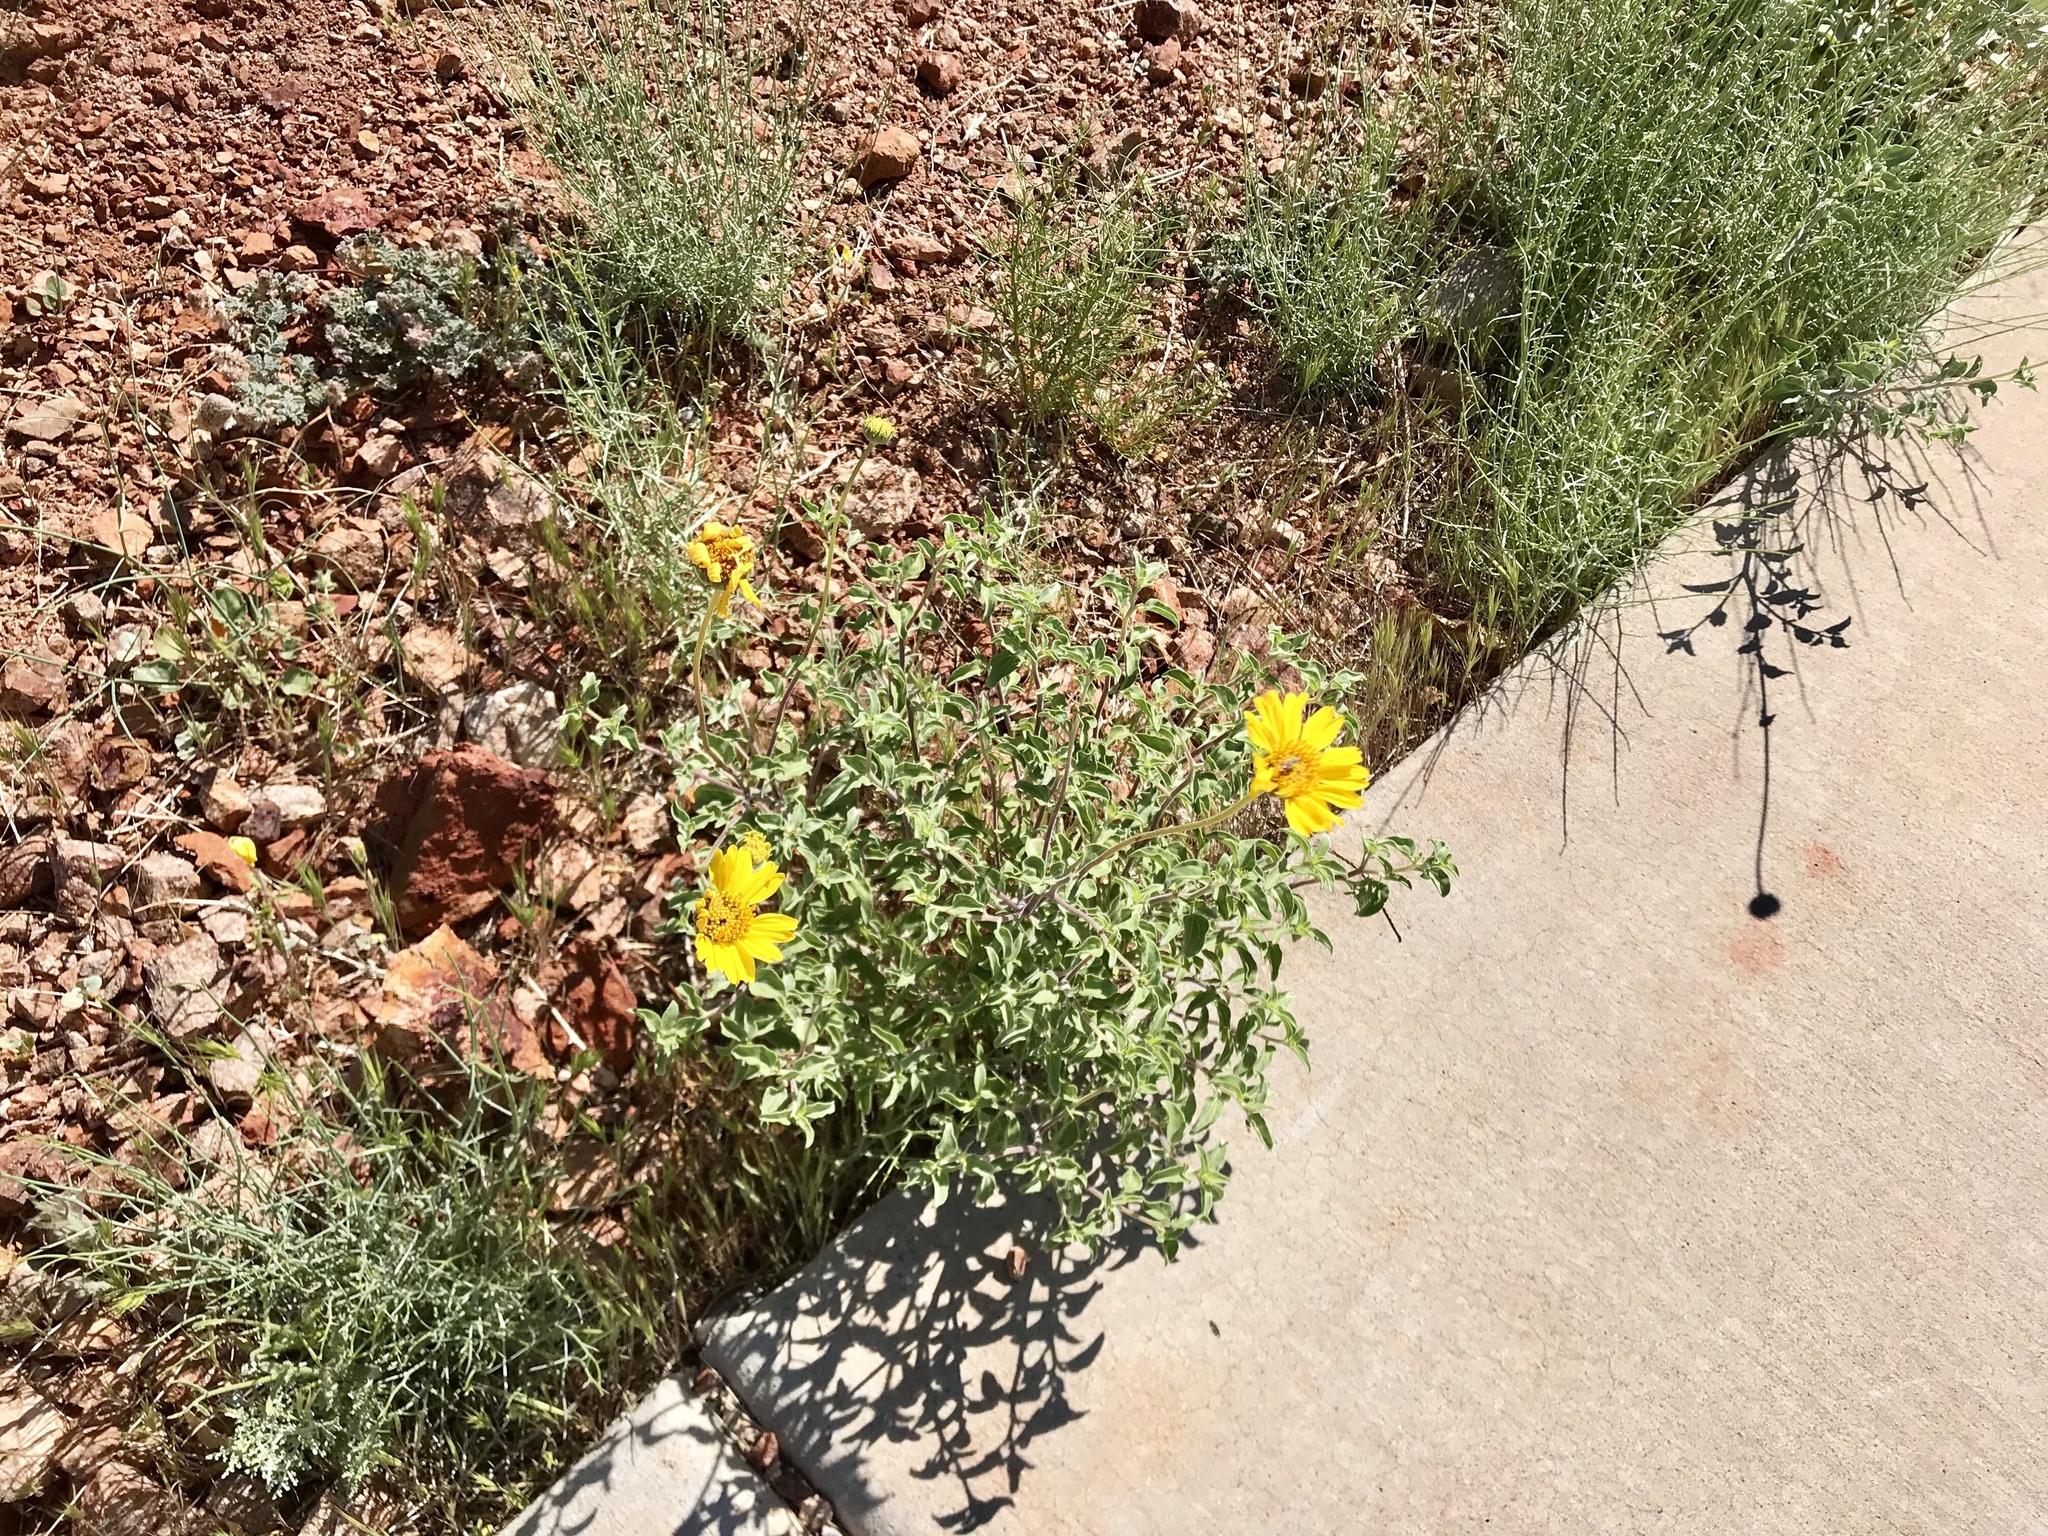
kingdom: Plantae
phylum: Tracheophyta
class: Magnoliopsida
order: Asterales
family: Asteraceae
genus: Encelia
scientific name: Encelia farinosa
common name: Brittlebush
